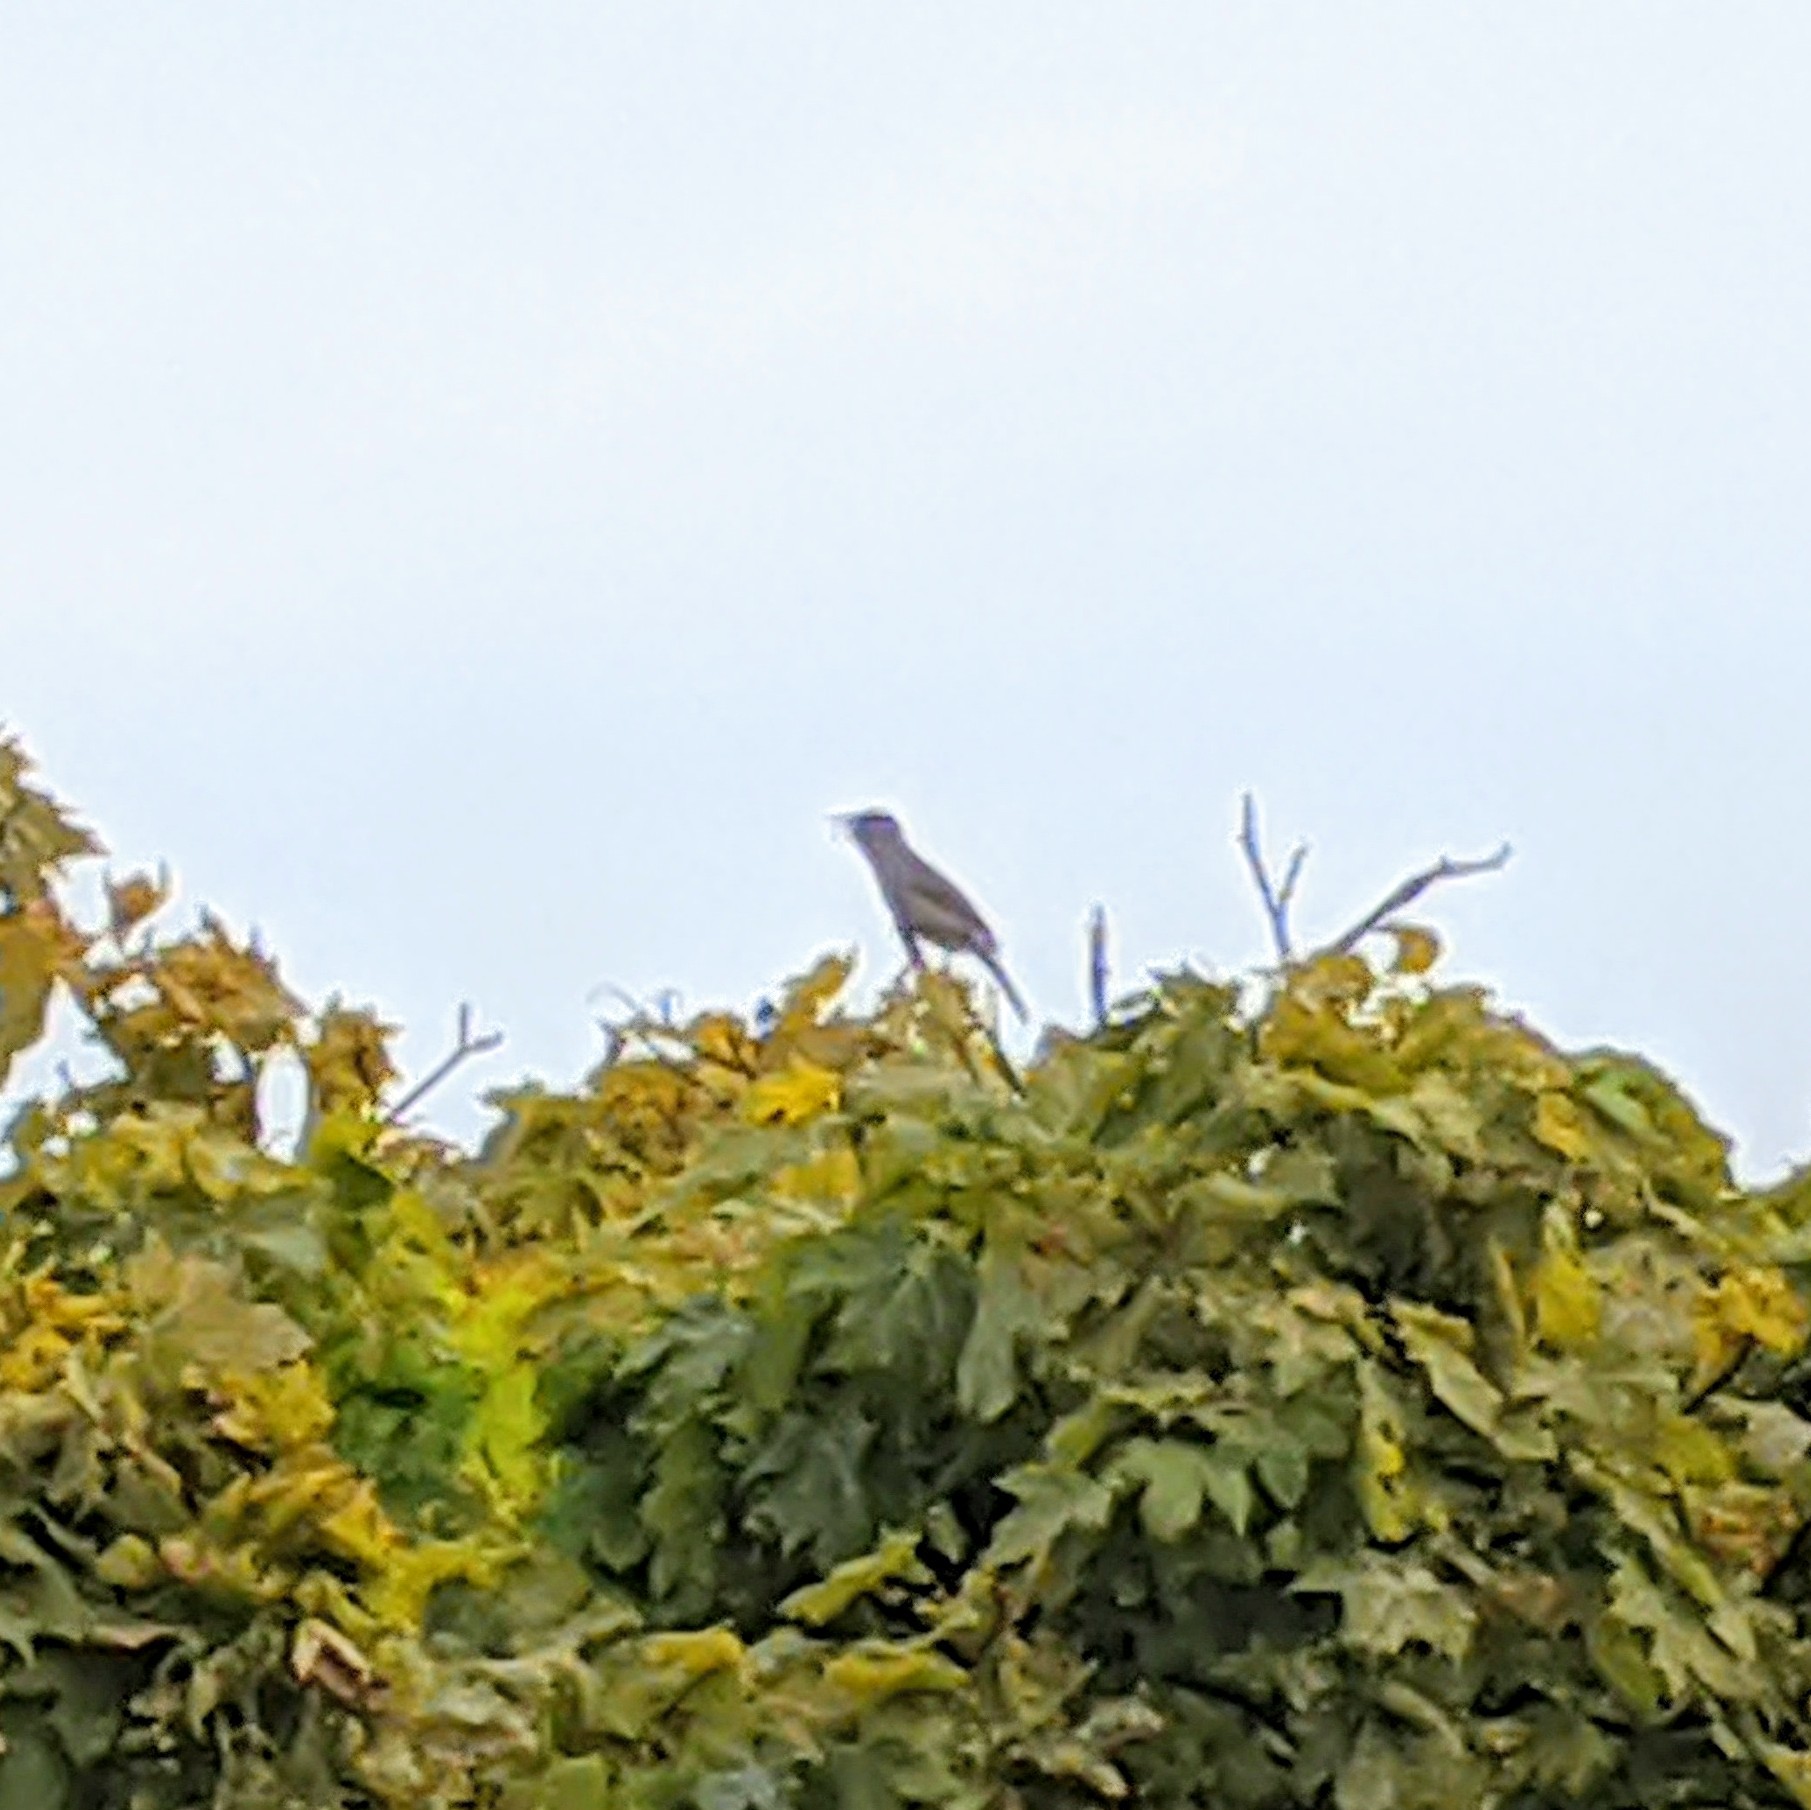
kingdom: Animalia
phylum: Chordata
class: Aves
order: Passeriformes
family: Sylviidae
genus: Sylvia
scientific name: Sylvia atricapilla
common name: Eurasian blackcap
